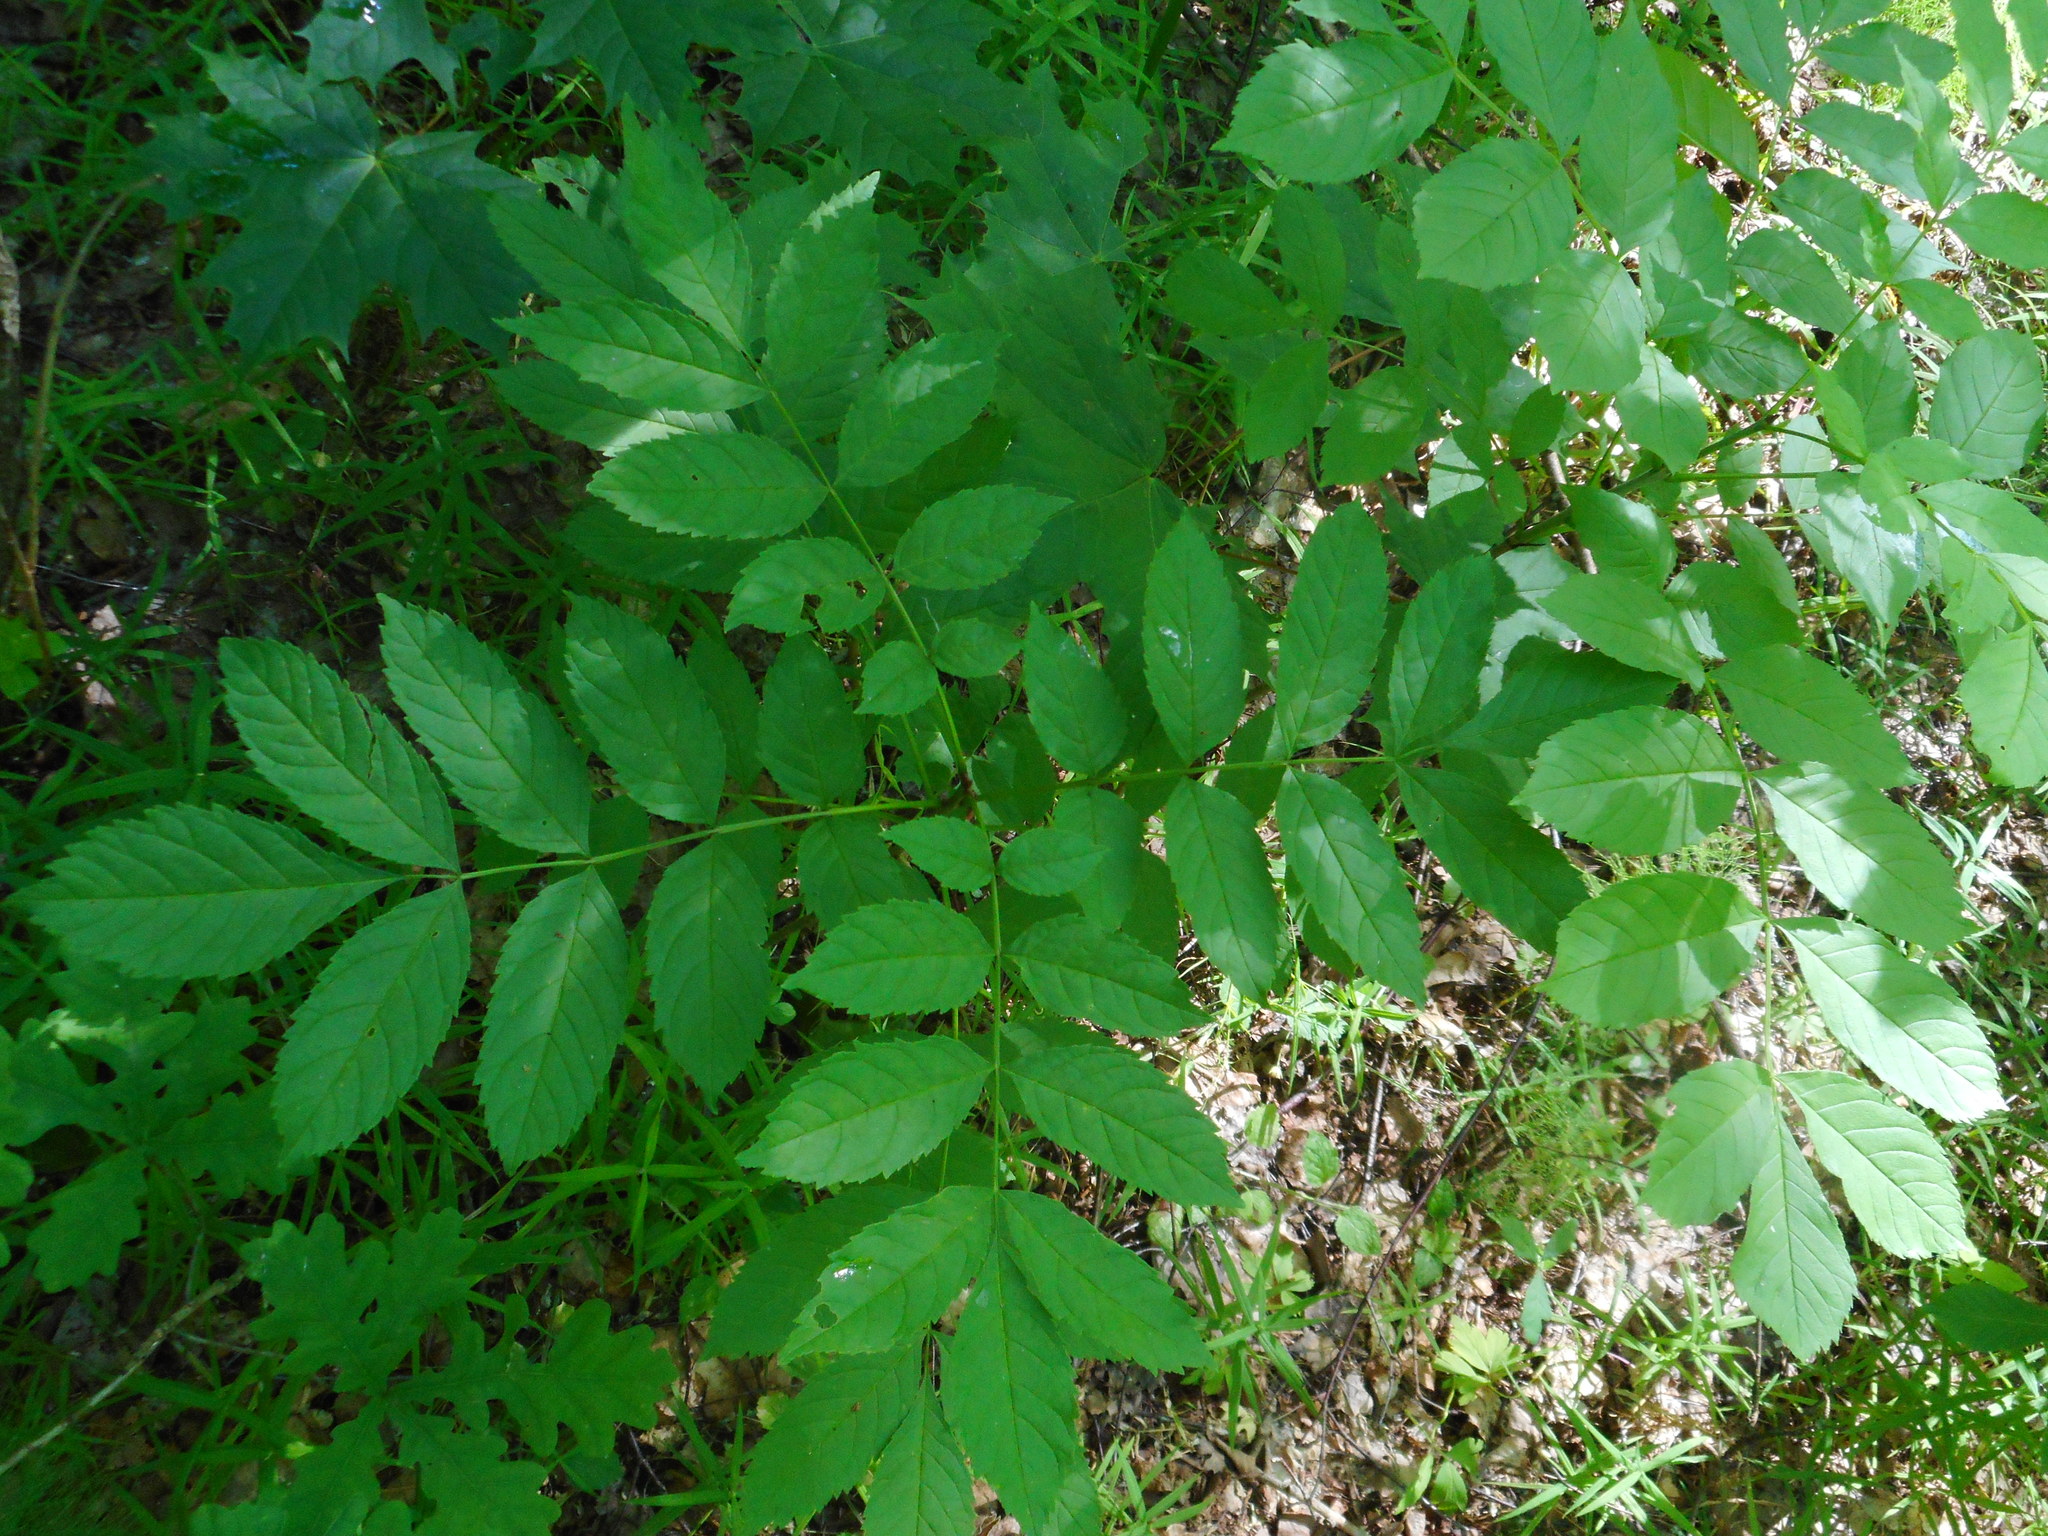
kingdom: Plantae
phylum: Tracheophyta
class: Magnoliopsida
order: Lamiales
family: Oleaceae
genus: Fraxinus
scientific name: Fraxinus excelsior
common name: European ash
